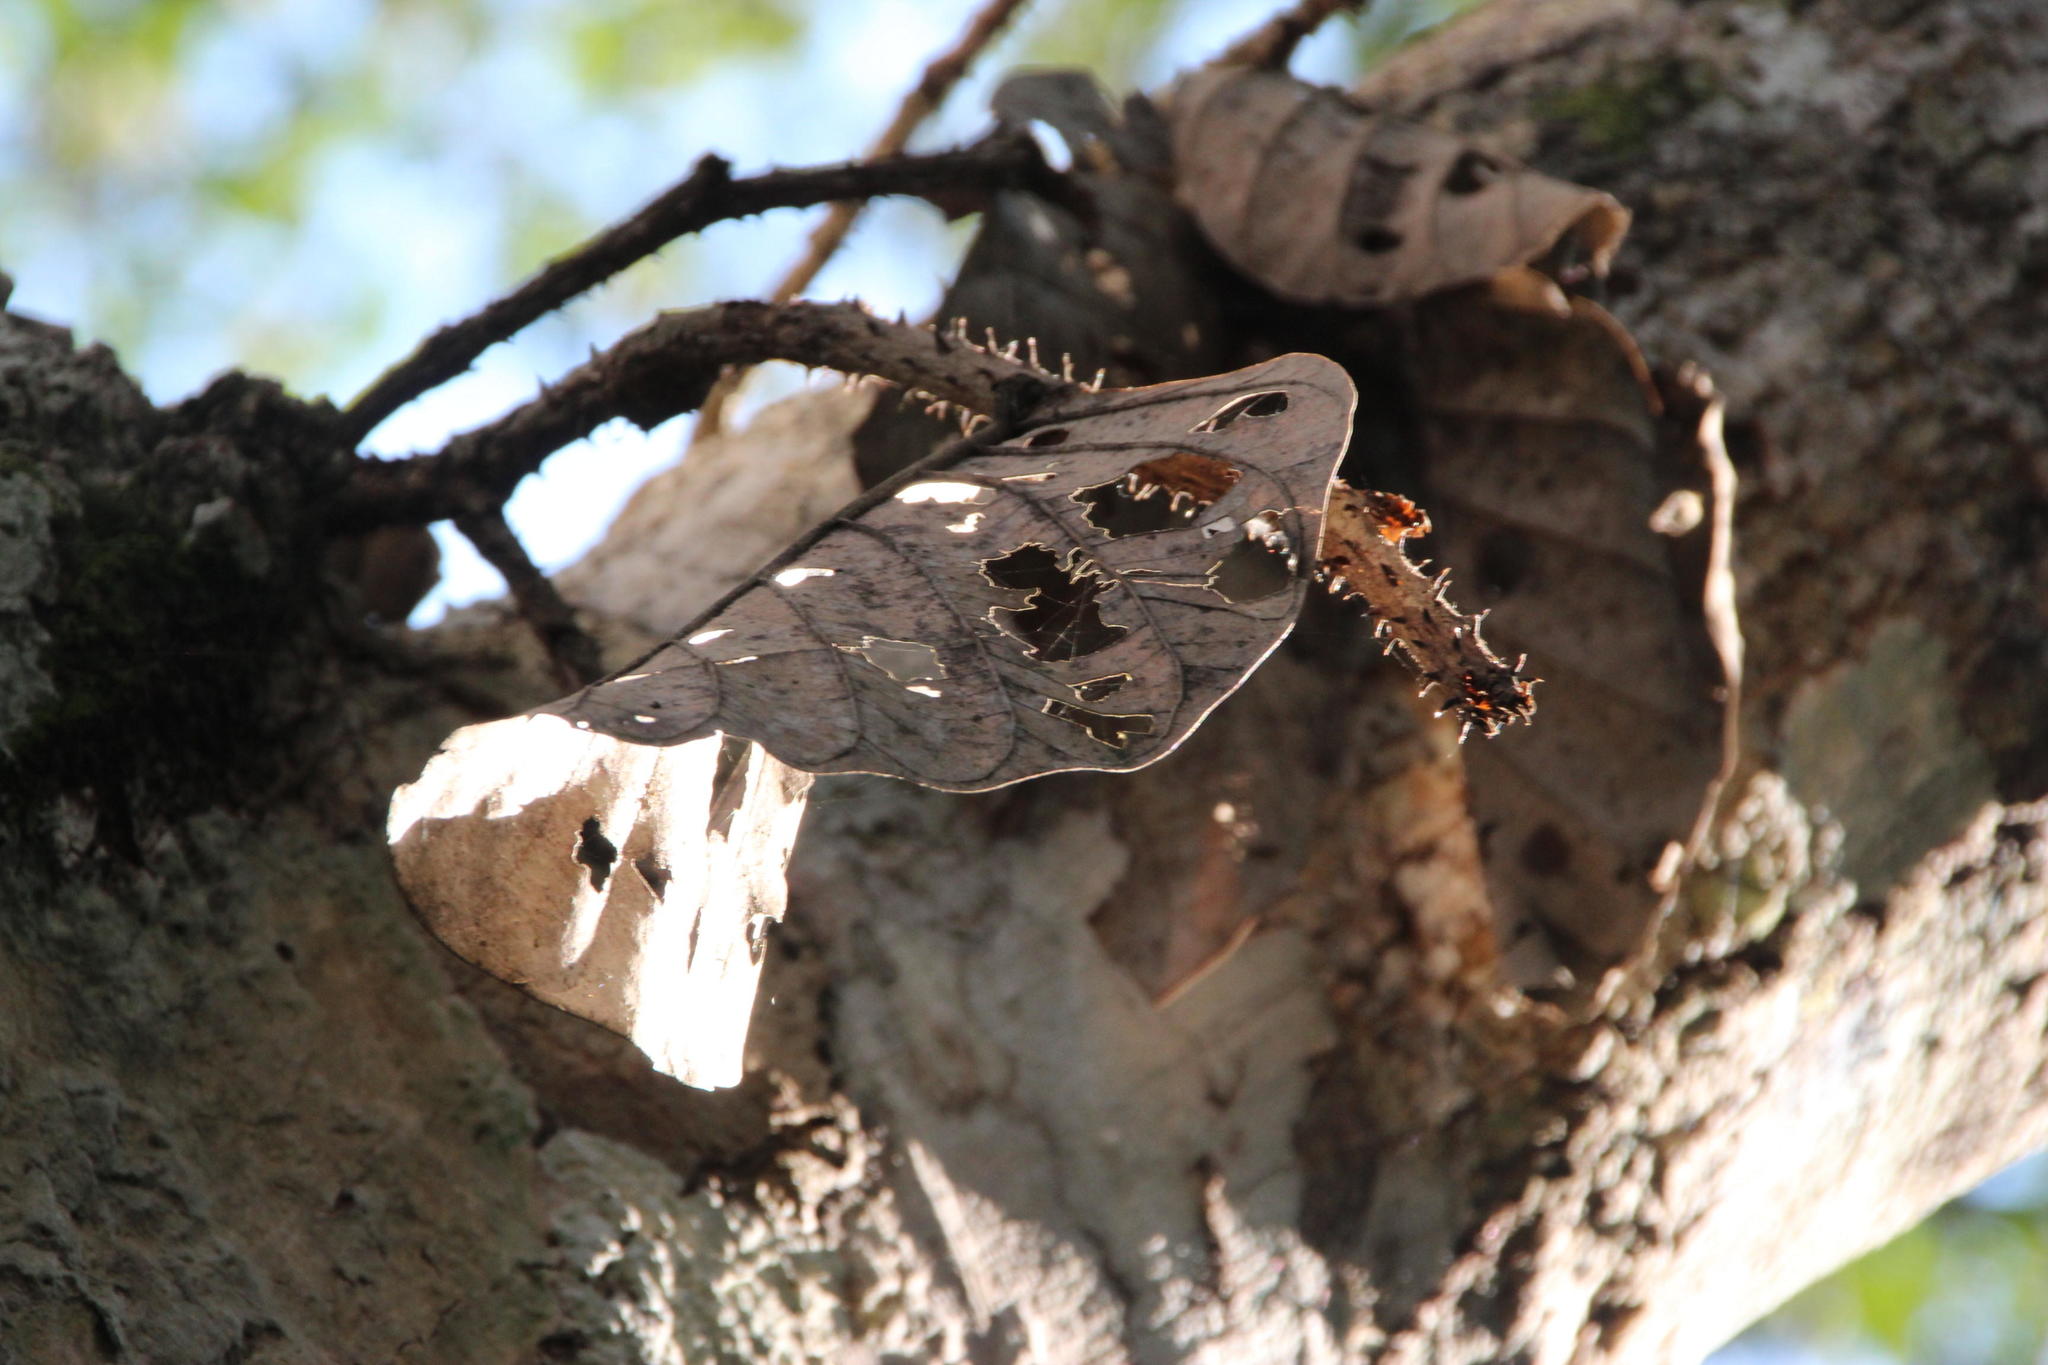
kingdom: Plantae
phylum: Tracheophyta
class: Magnoliopsida
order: Rosales
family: Moraceae
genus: Poulsenia
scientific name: Poulsenia armata
